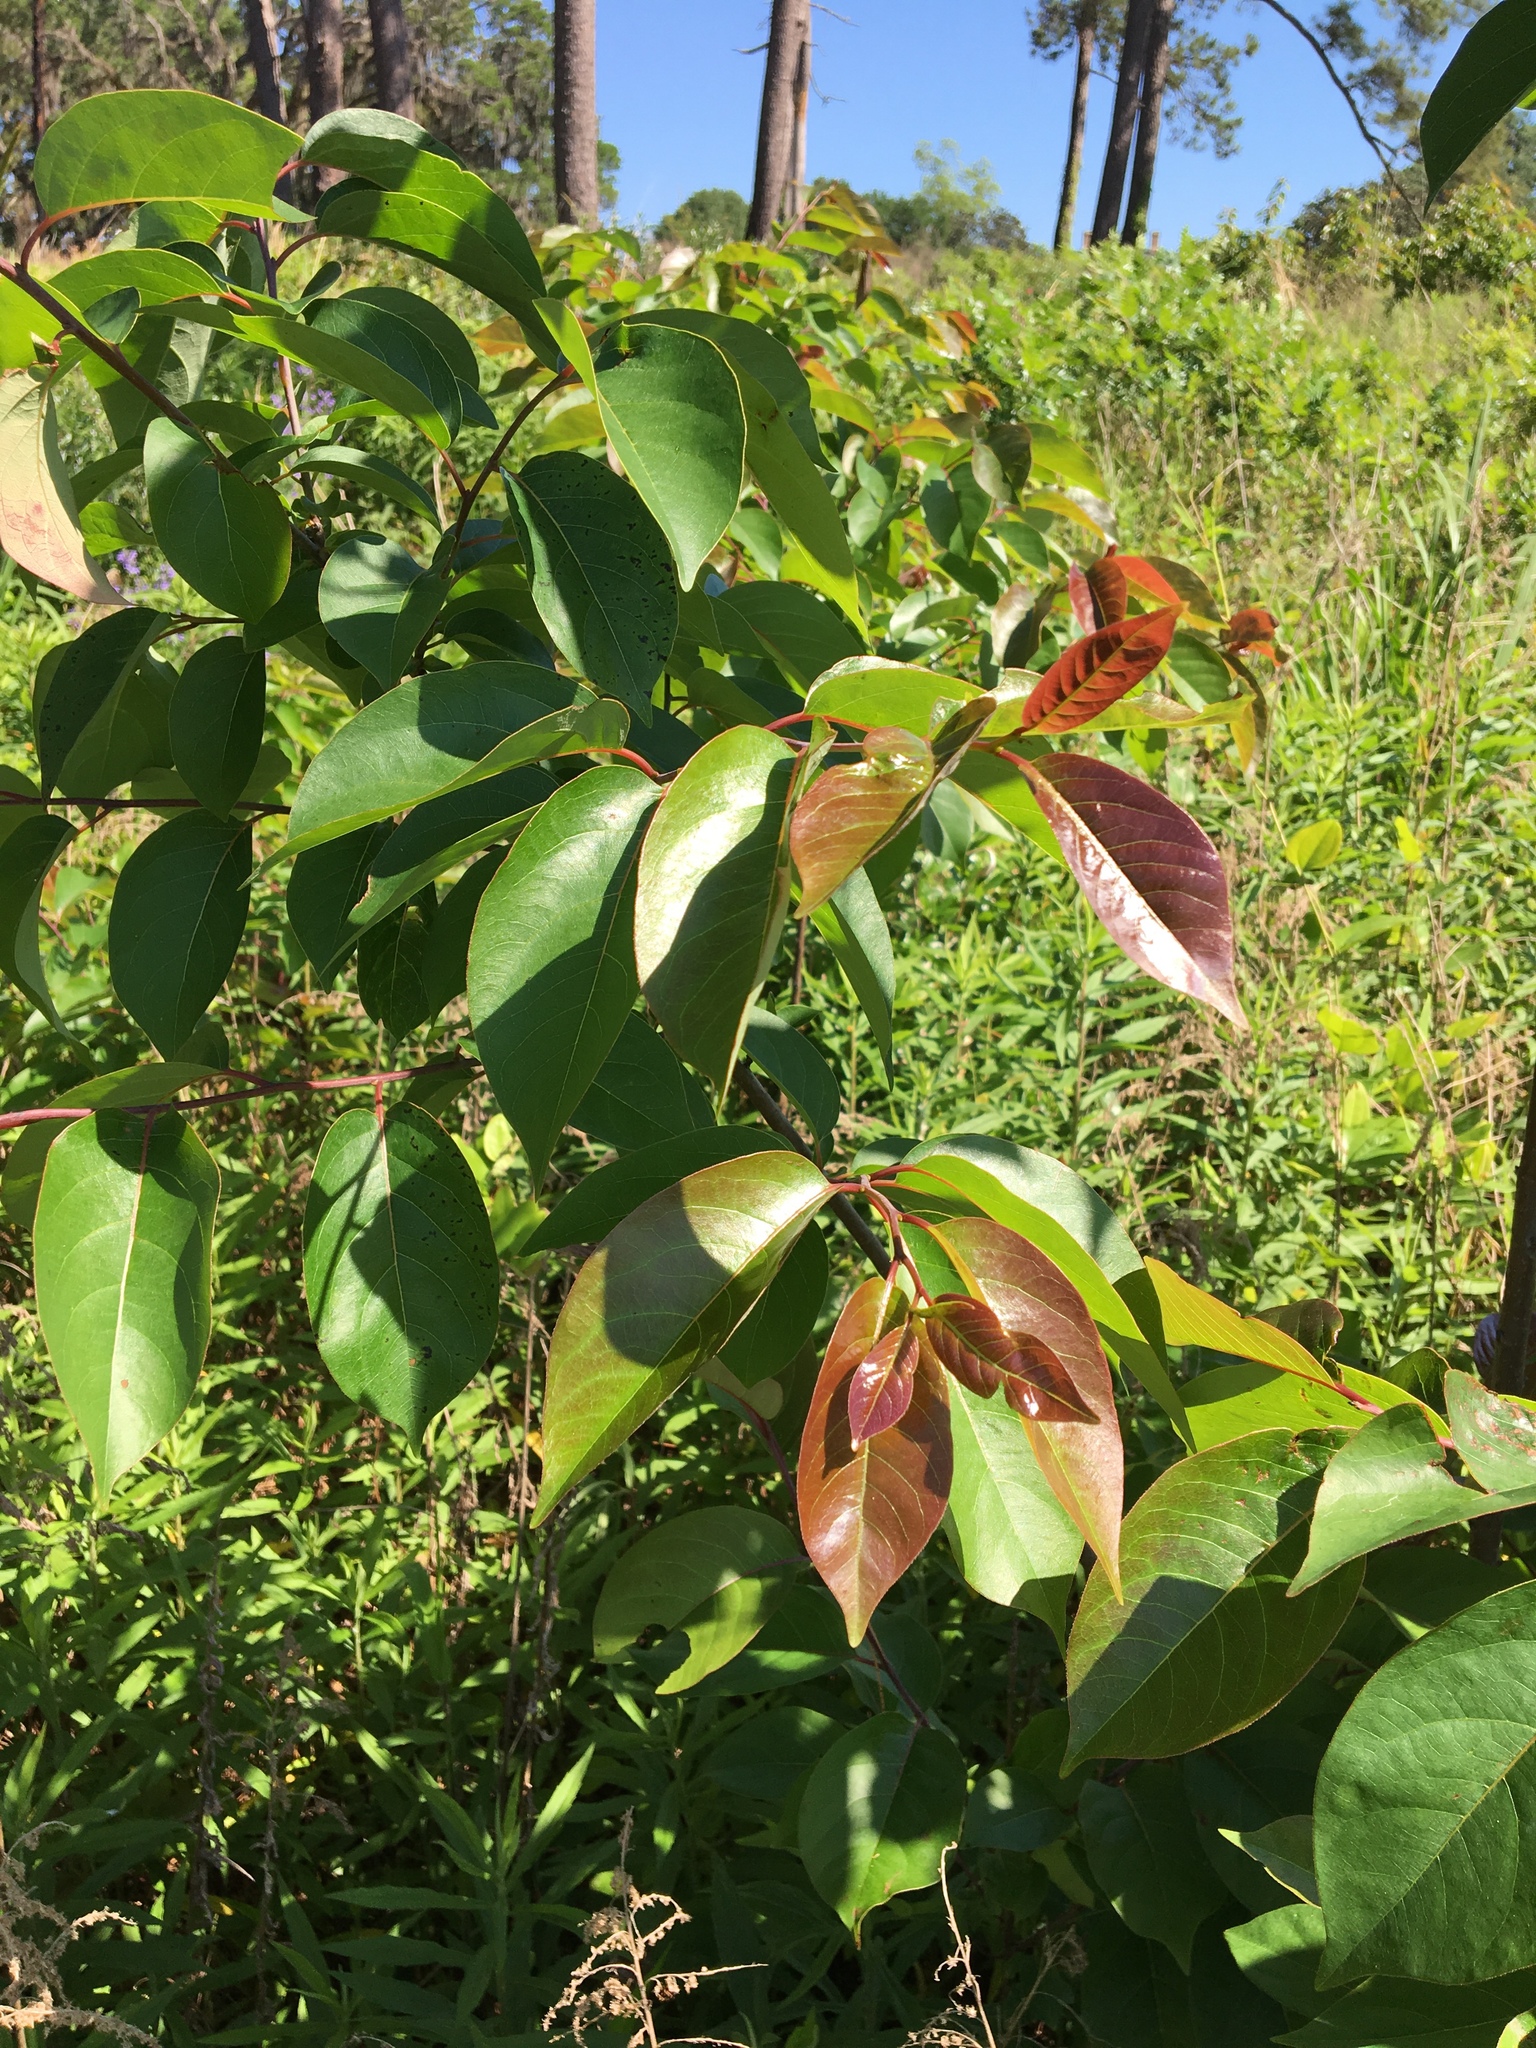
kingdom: Plantae
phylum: Tracheophyta
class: Magnoliopsida
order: Ericales
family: Ebenaceae
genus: Diospyros
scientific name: Diospyros virginiana
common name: Persimmon
